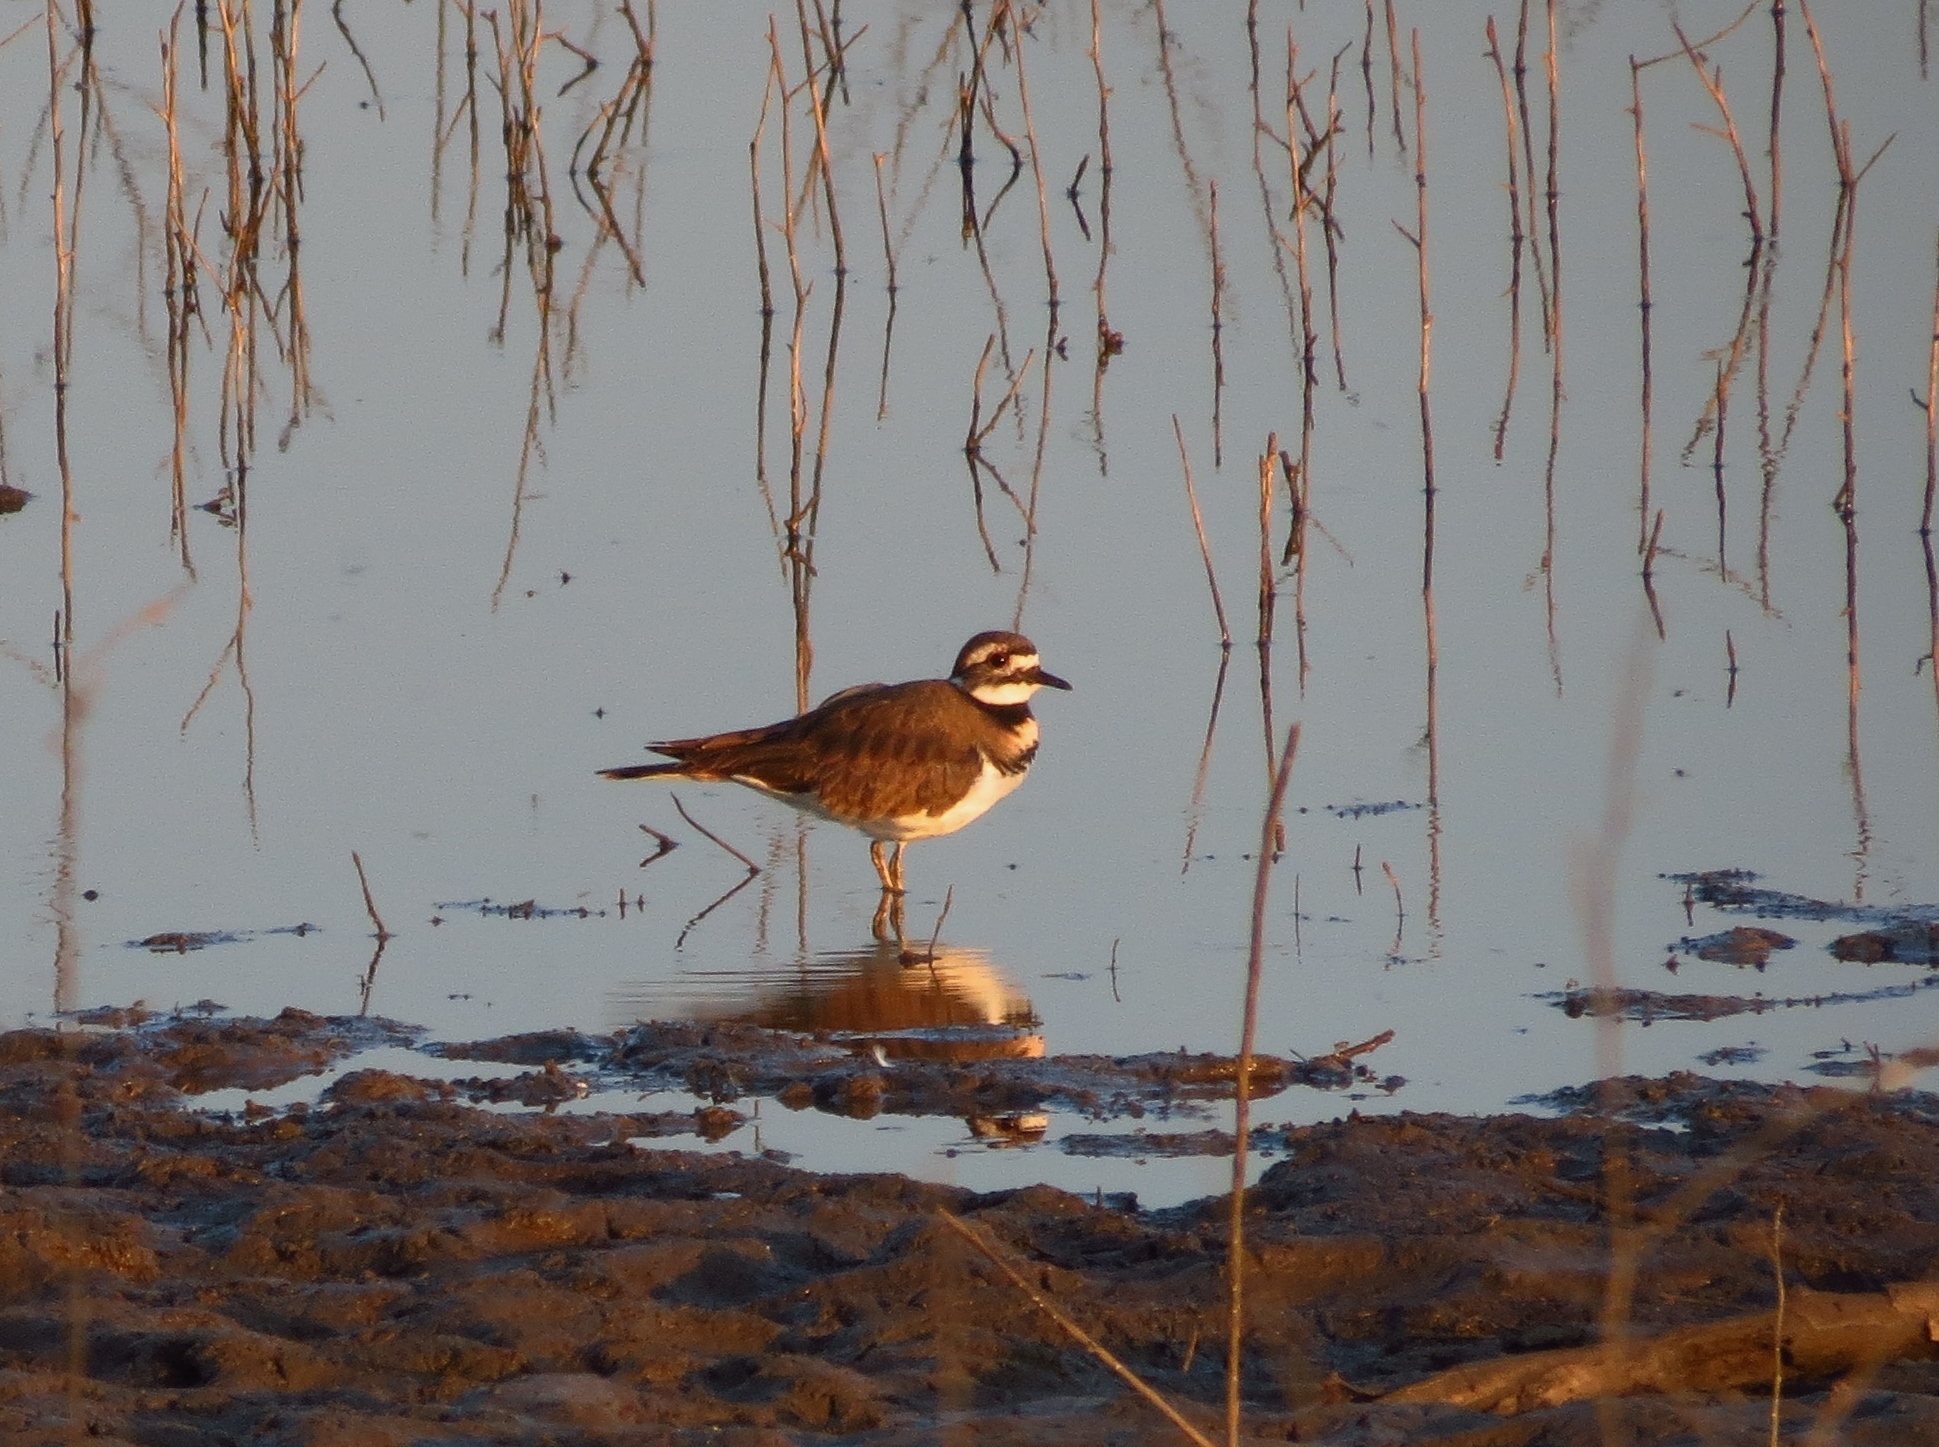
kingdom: Animalia
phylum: Chordata
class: Aves
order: Charadriiformes
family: Charadriidae
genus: Charadrius
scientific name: Charadrius vociferus
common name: Killdeer
